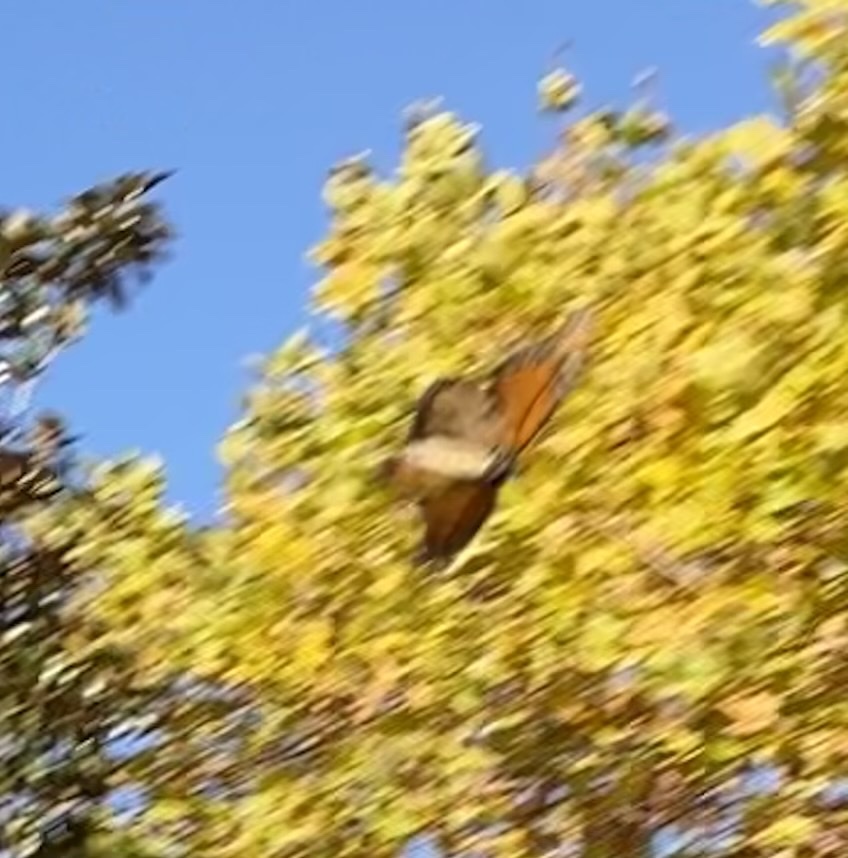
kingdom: Animalia
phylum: Arthropoda
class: Insecta
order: Lepidoptera
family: Nymphalidae
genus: Danaus
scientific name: Danaus plexippus
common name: Monarch
